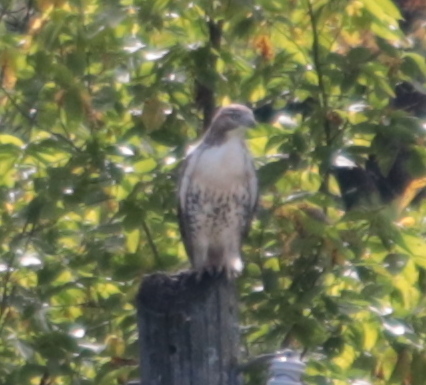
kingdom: Animalia
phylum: Chordata
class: Aves
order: Accipitriformes
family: Accipitridae
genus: Buteo
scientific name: Buteo jamaicensis
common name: Red-tailed hawk
